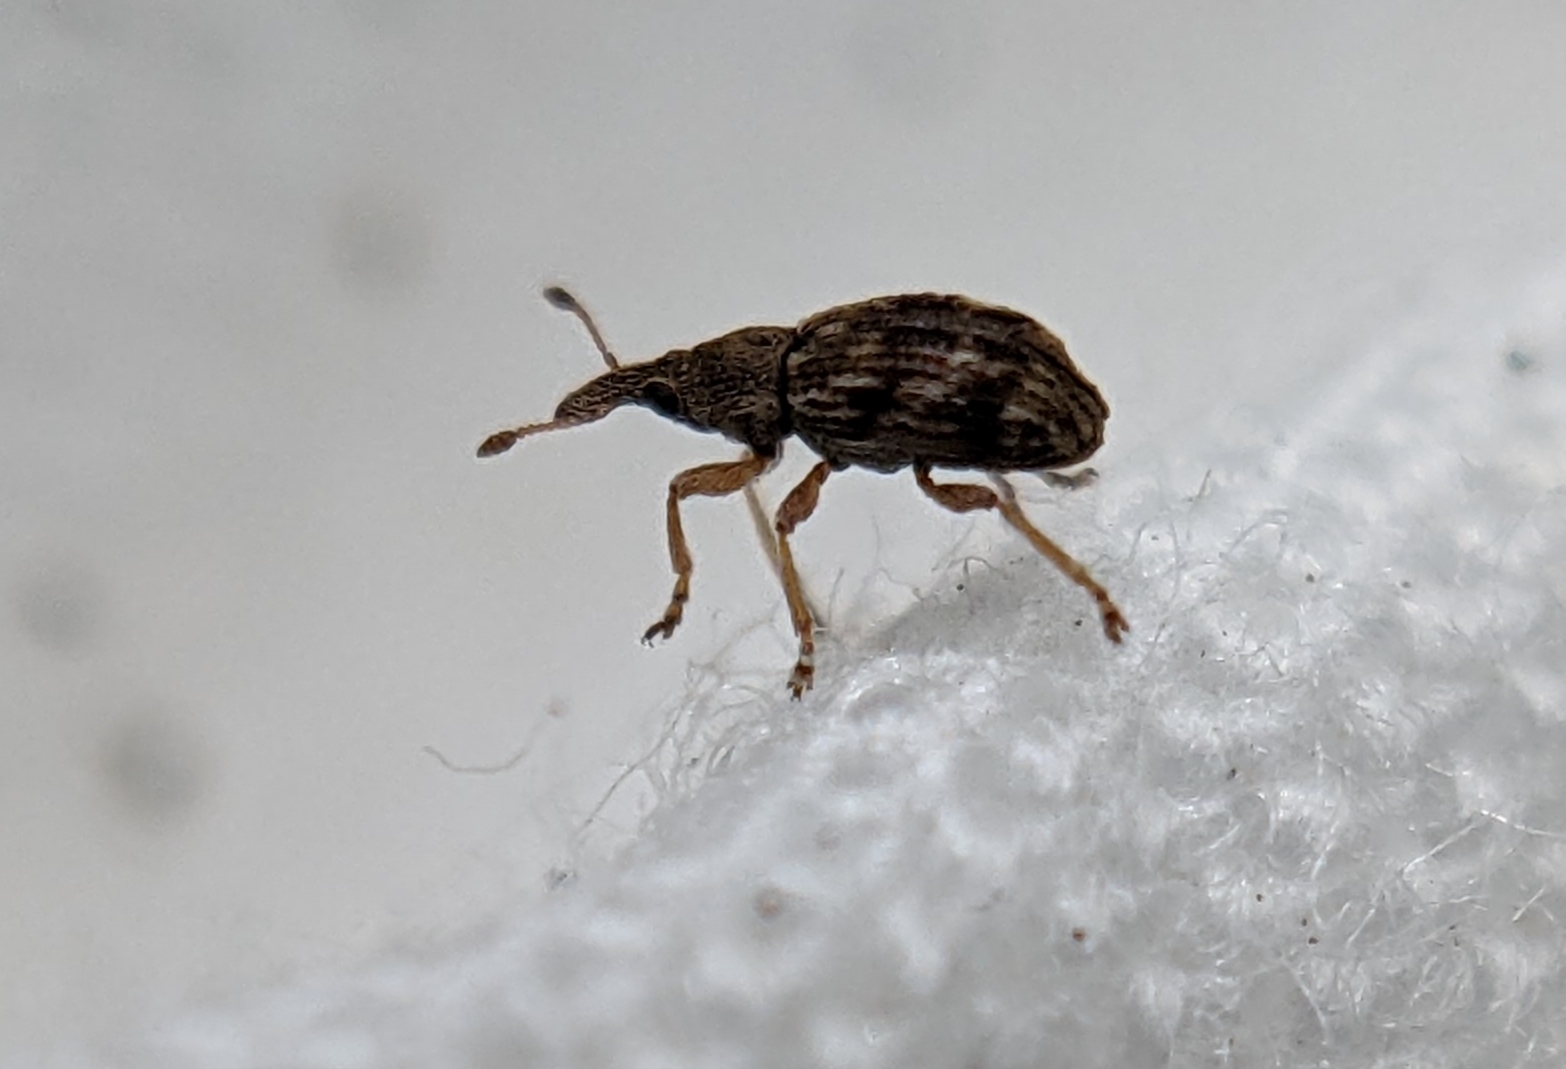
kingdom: Animalia
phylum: Arthropoda
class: Insecta
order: Coleoptera
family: Apionidae
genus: Taeniapion
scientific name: Taeniapion urticarium
